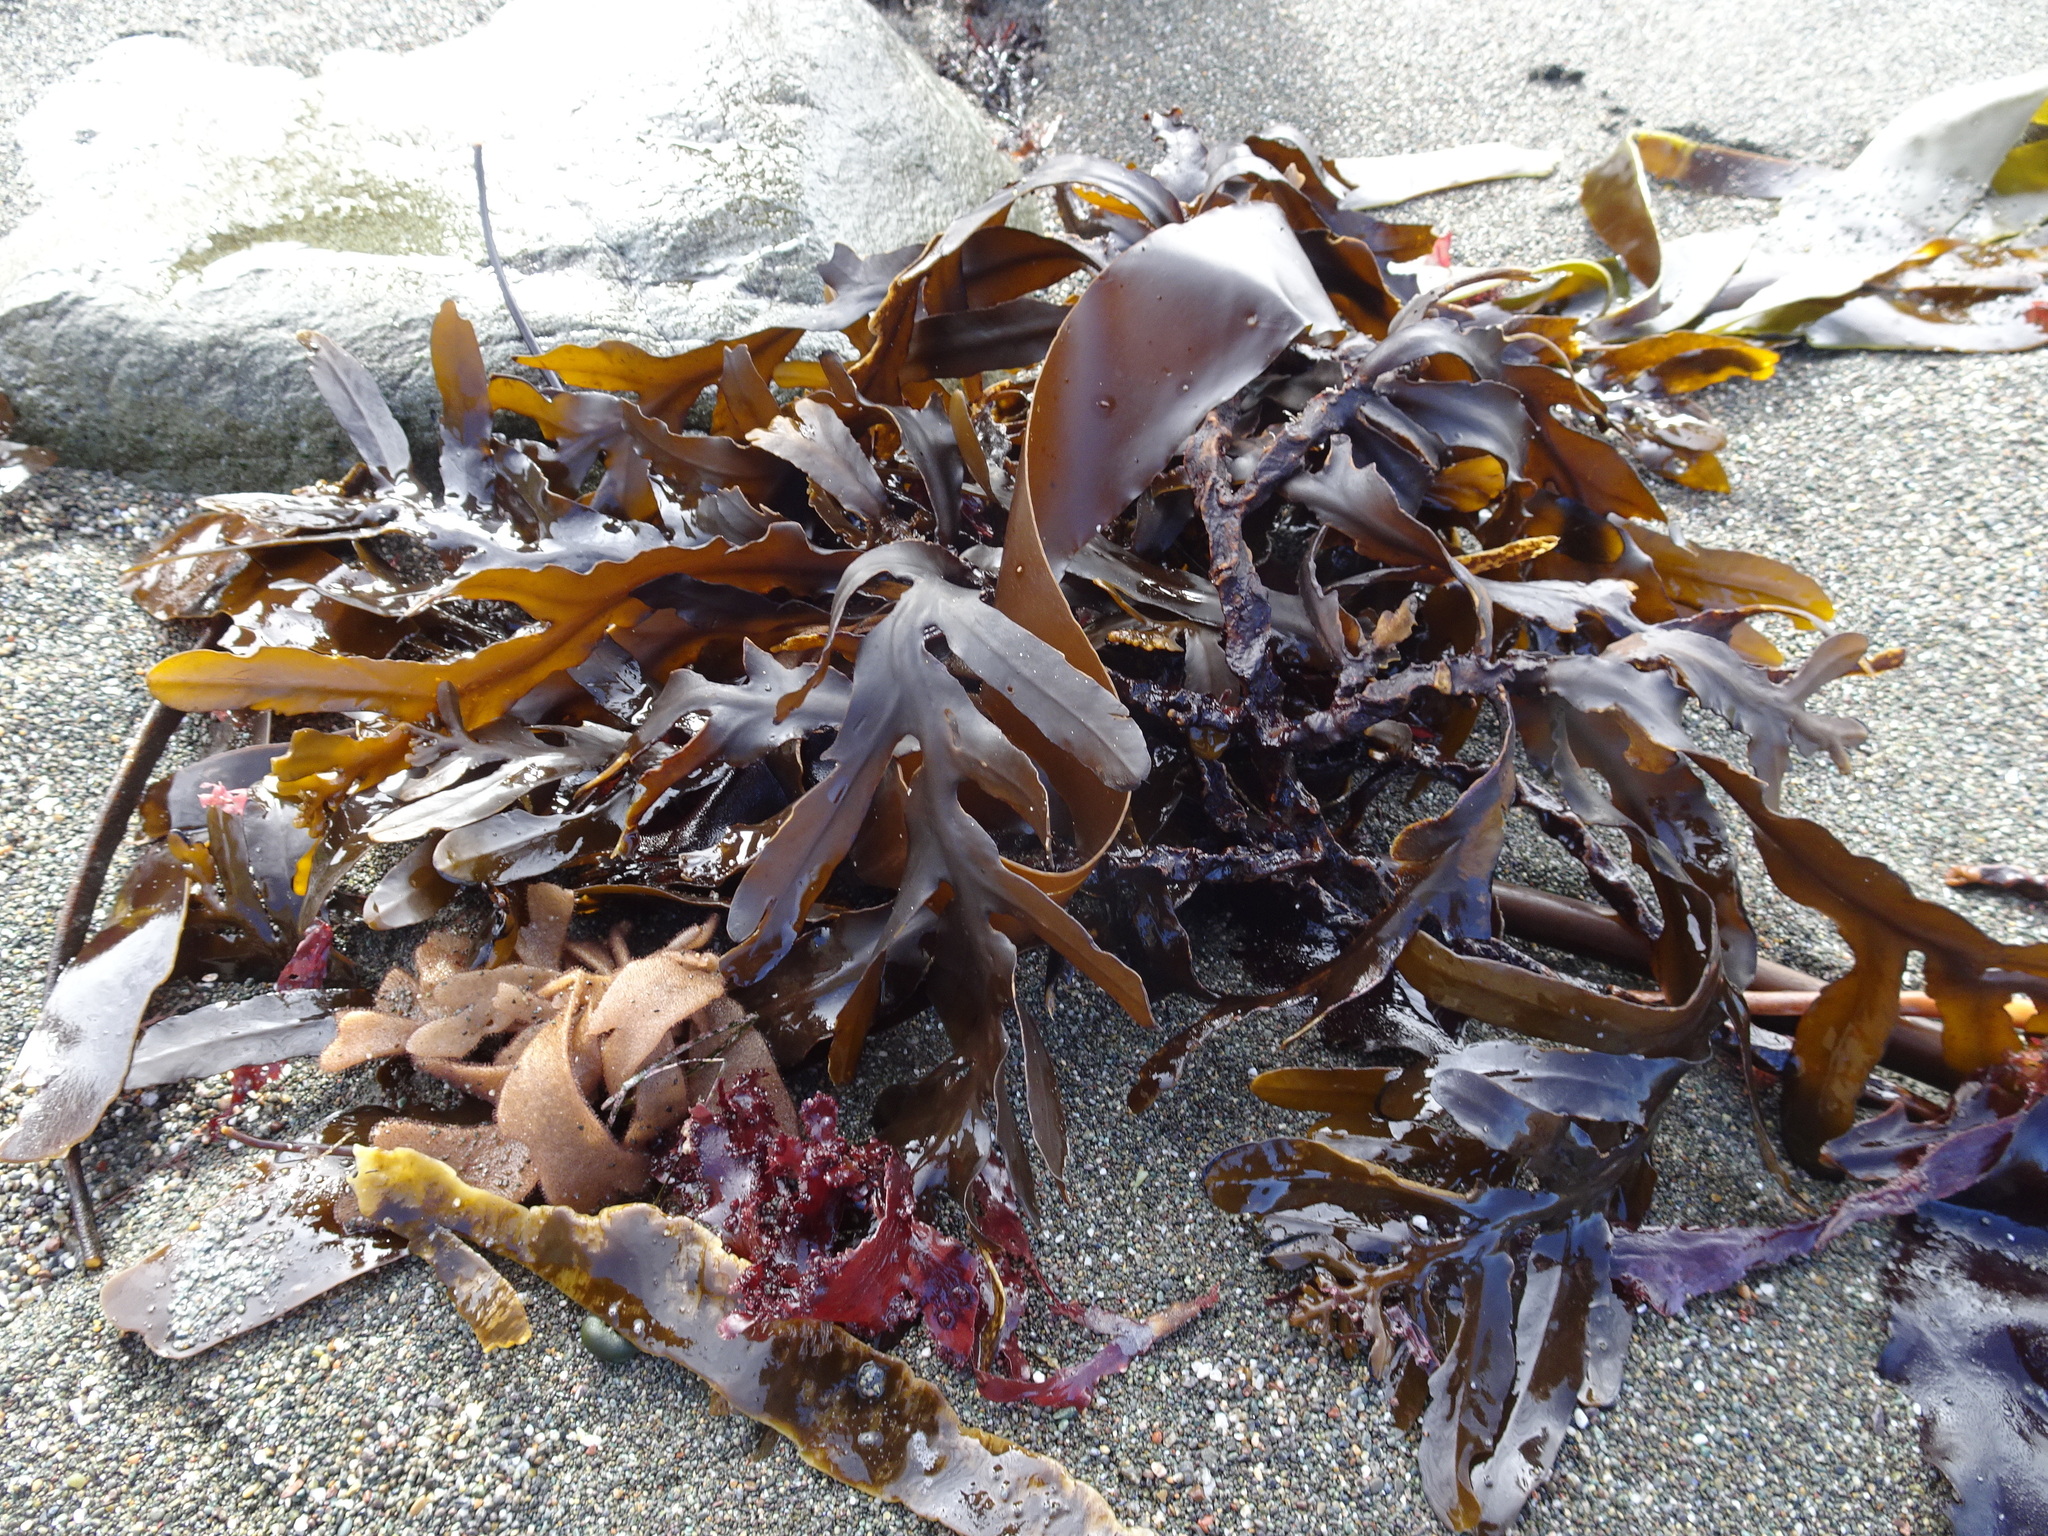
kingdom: Chromista
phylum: Ochrophyta
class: Phaeophyceae
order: Fucales
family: Sargassaceae
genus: Stephanocystis
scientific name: Stephanocystis
